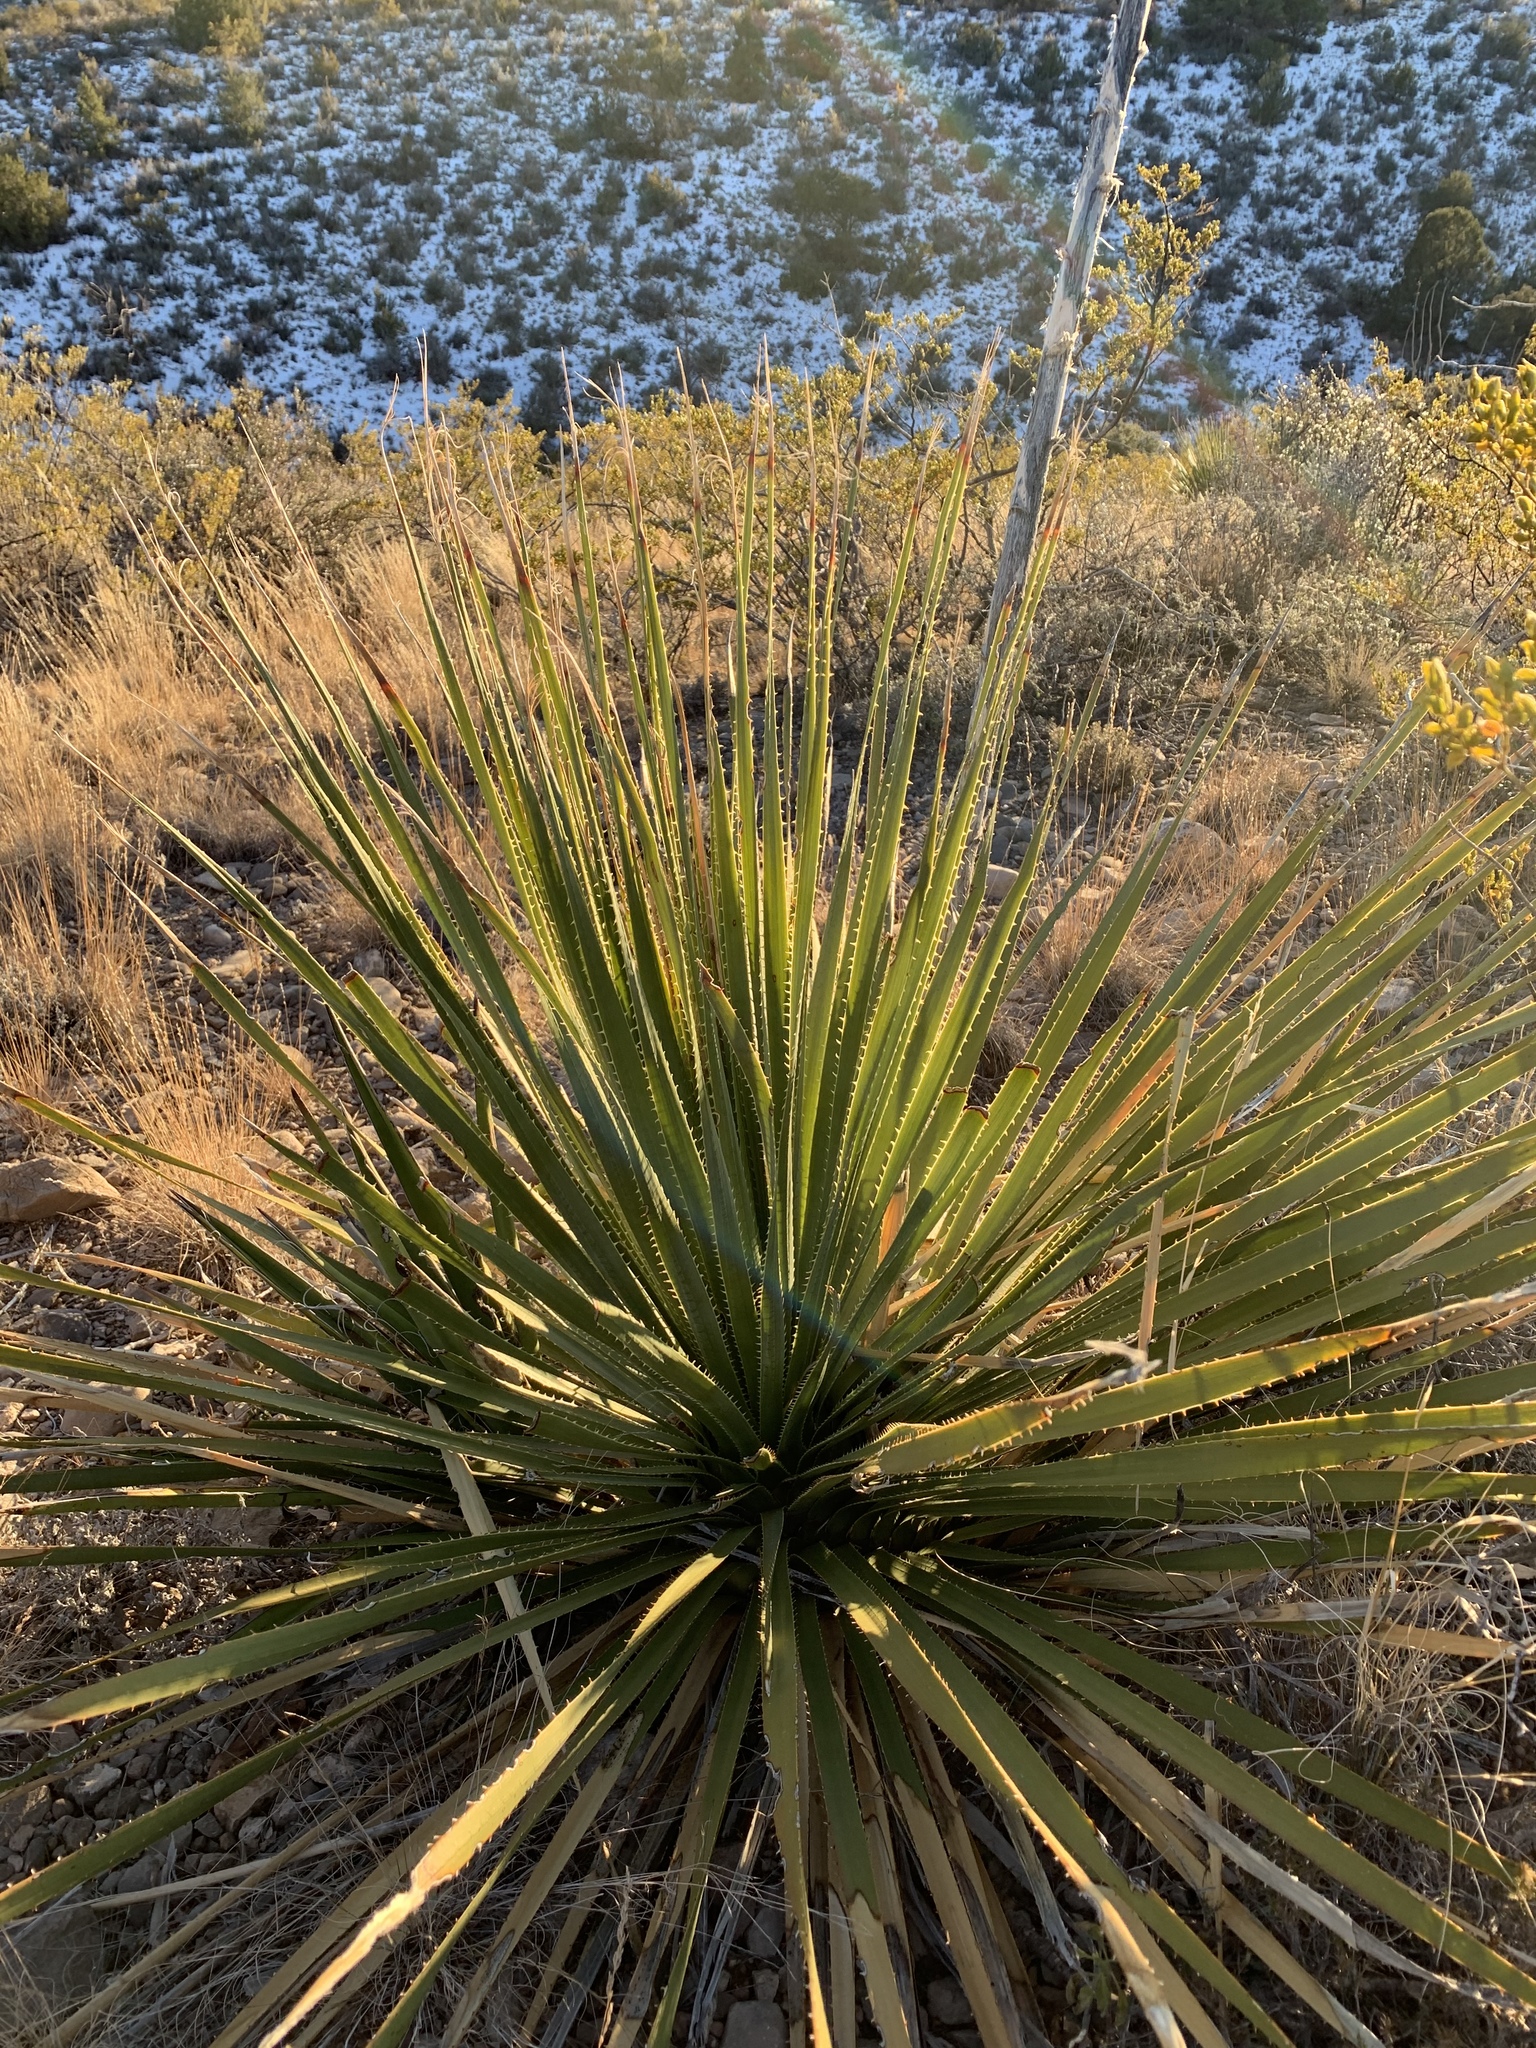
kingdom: Plantae
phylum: Tracheophyta
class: Liliopsida
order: Asparagales
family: Asparagaceae
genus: Dasylirion
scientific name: Dasylirion wheeleri
